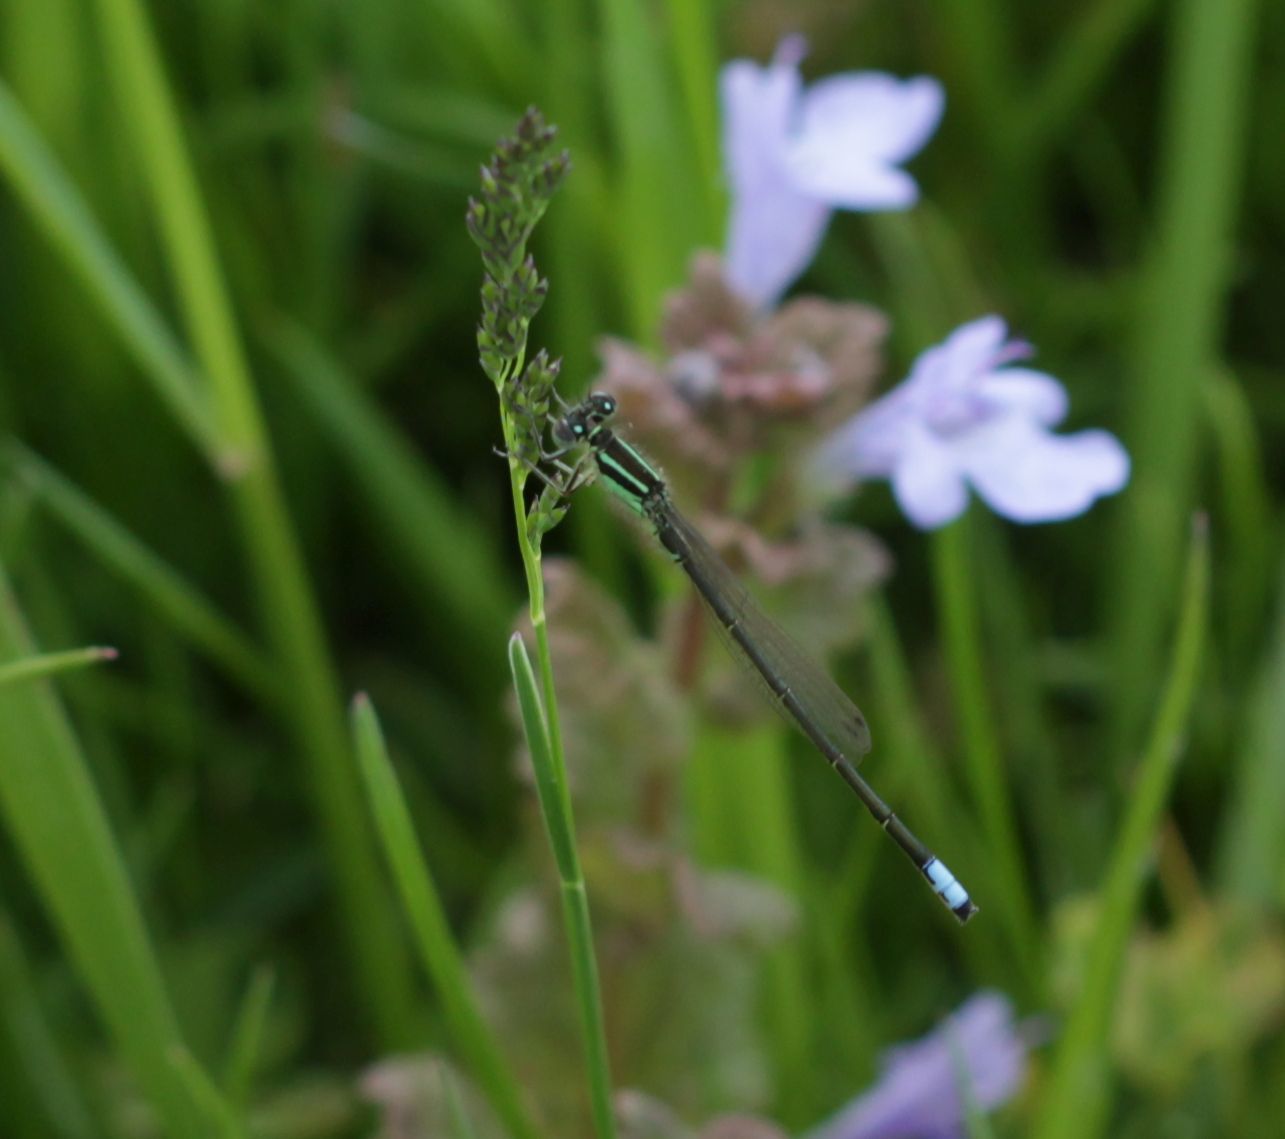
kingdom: Animalia
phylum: Arthropoda
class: Insecta
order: Odonata
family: Coenagrionidae
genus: Ischnura
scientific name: Ischnura verticalis
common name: Eastern forktail
